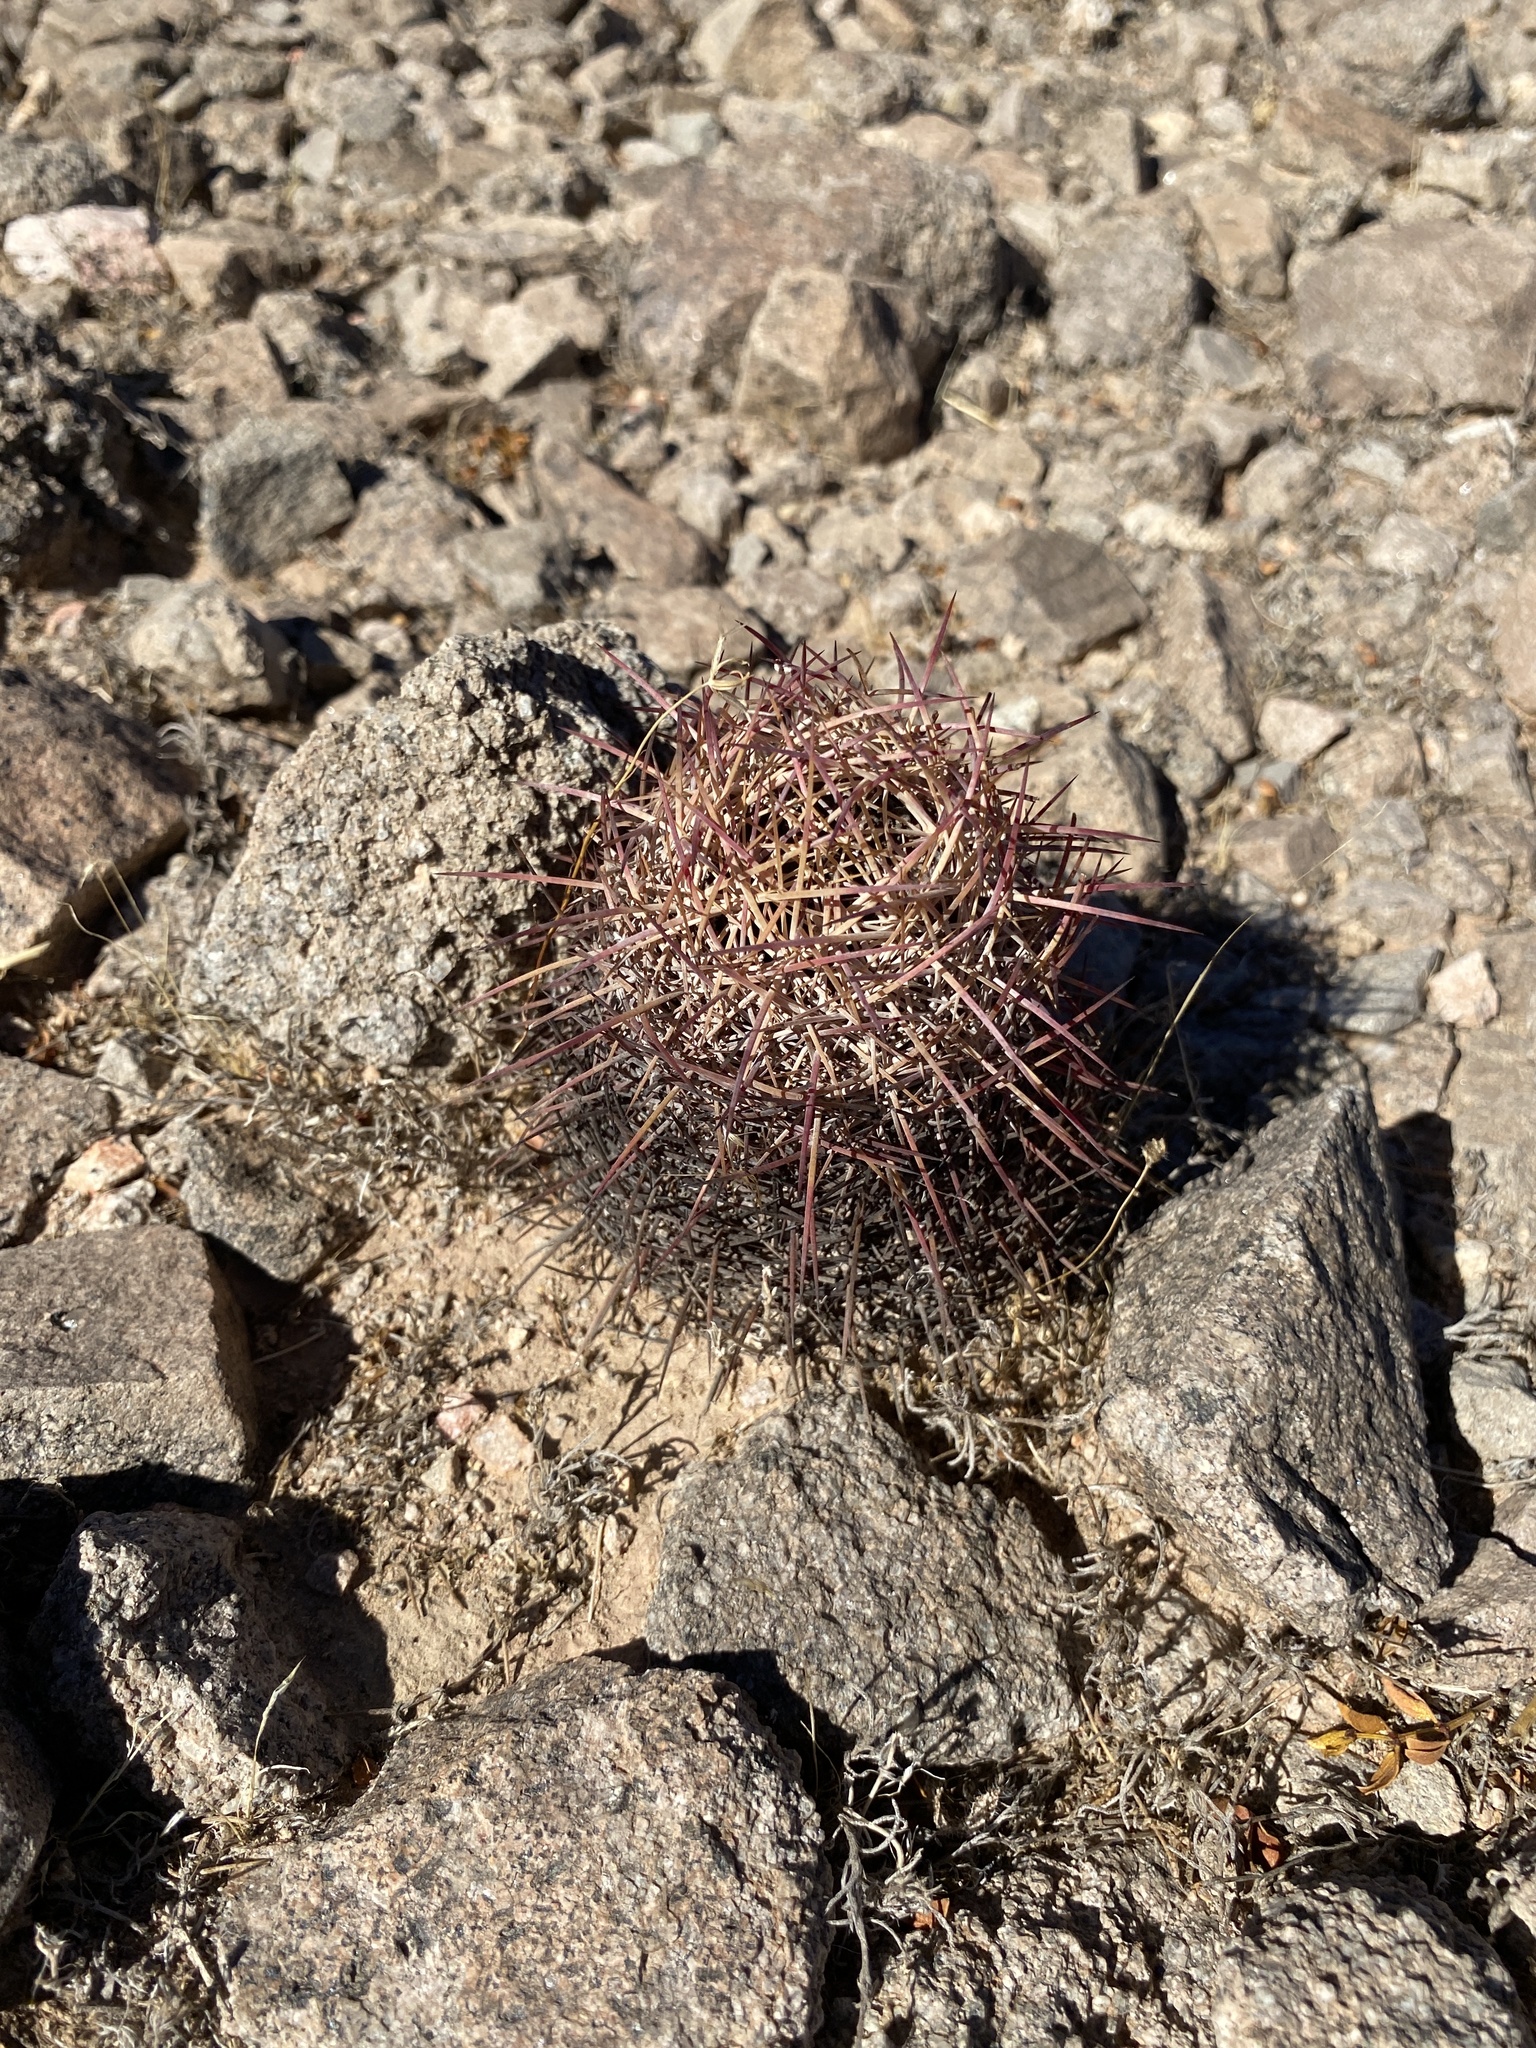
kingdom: Plantae
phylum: Tracheophyta
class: Magnoliopsida
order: Caryophyllales
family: Cactaceae
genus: Sclerocactus
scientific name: Sclerocactus johnsonii
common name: Eight-spine fishhook cactus
